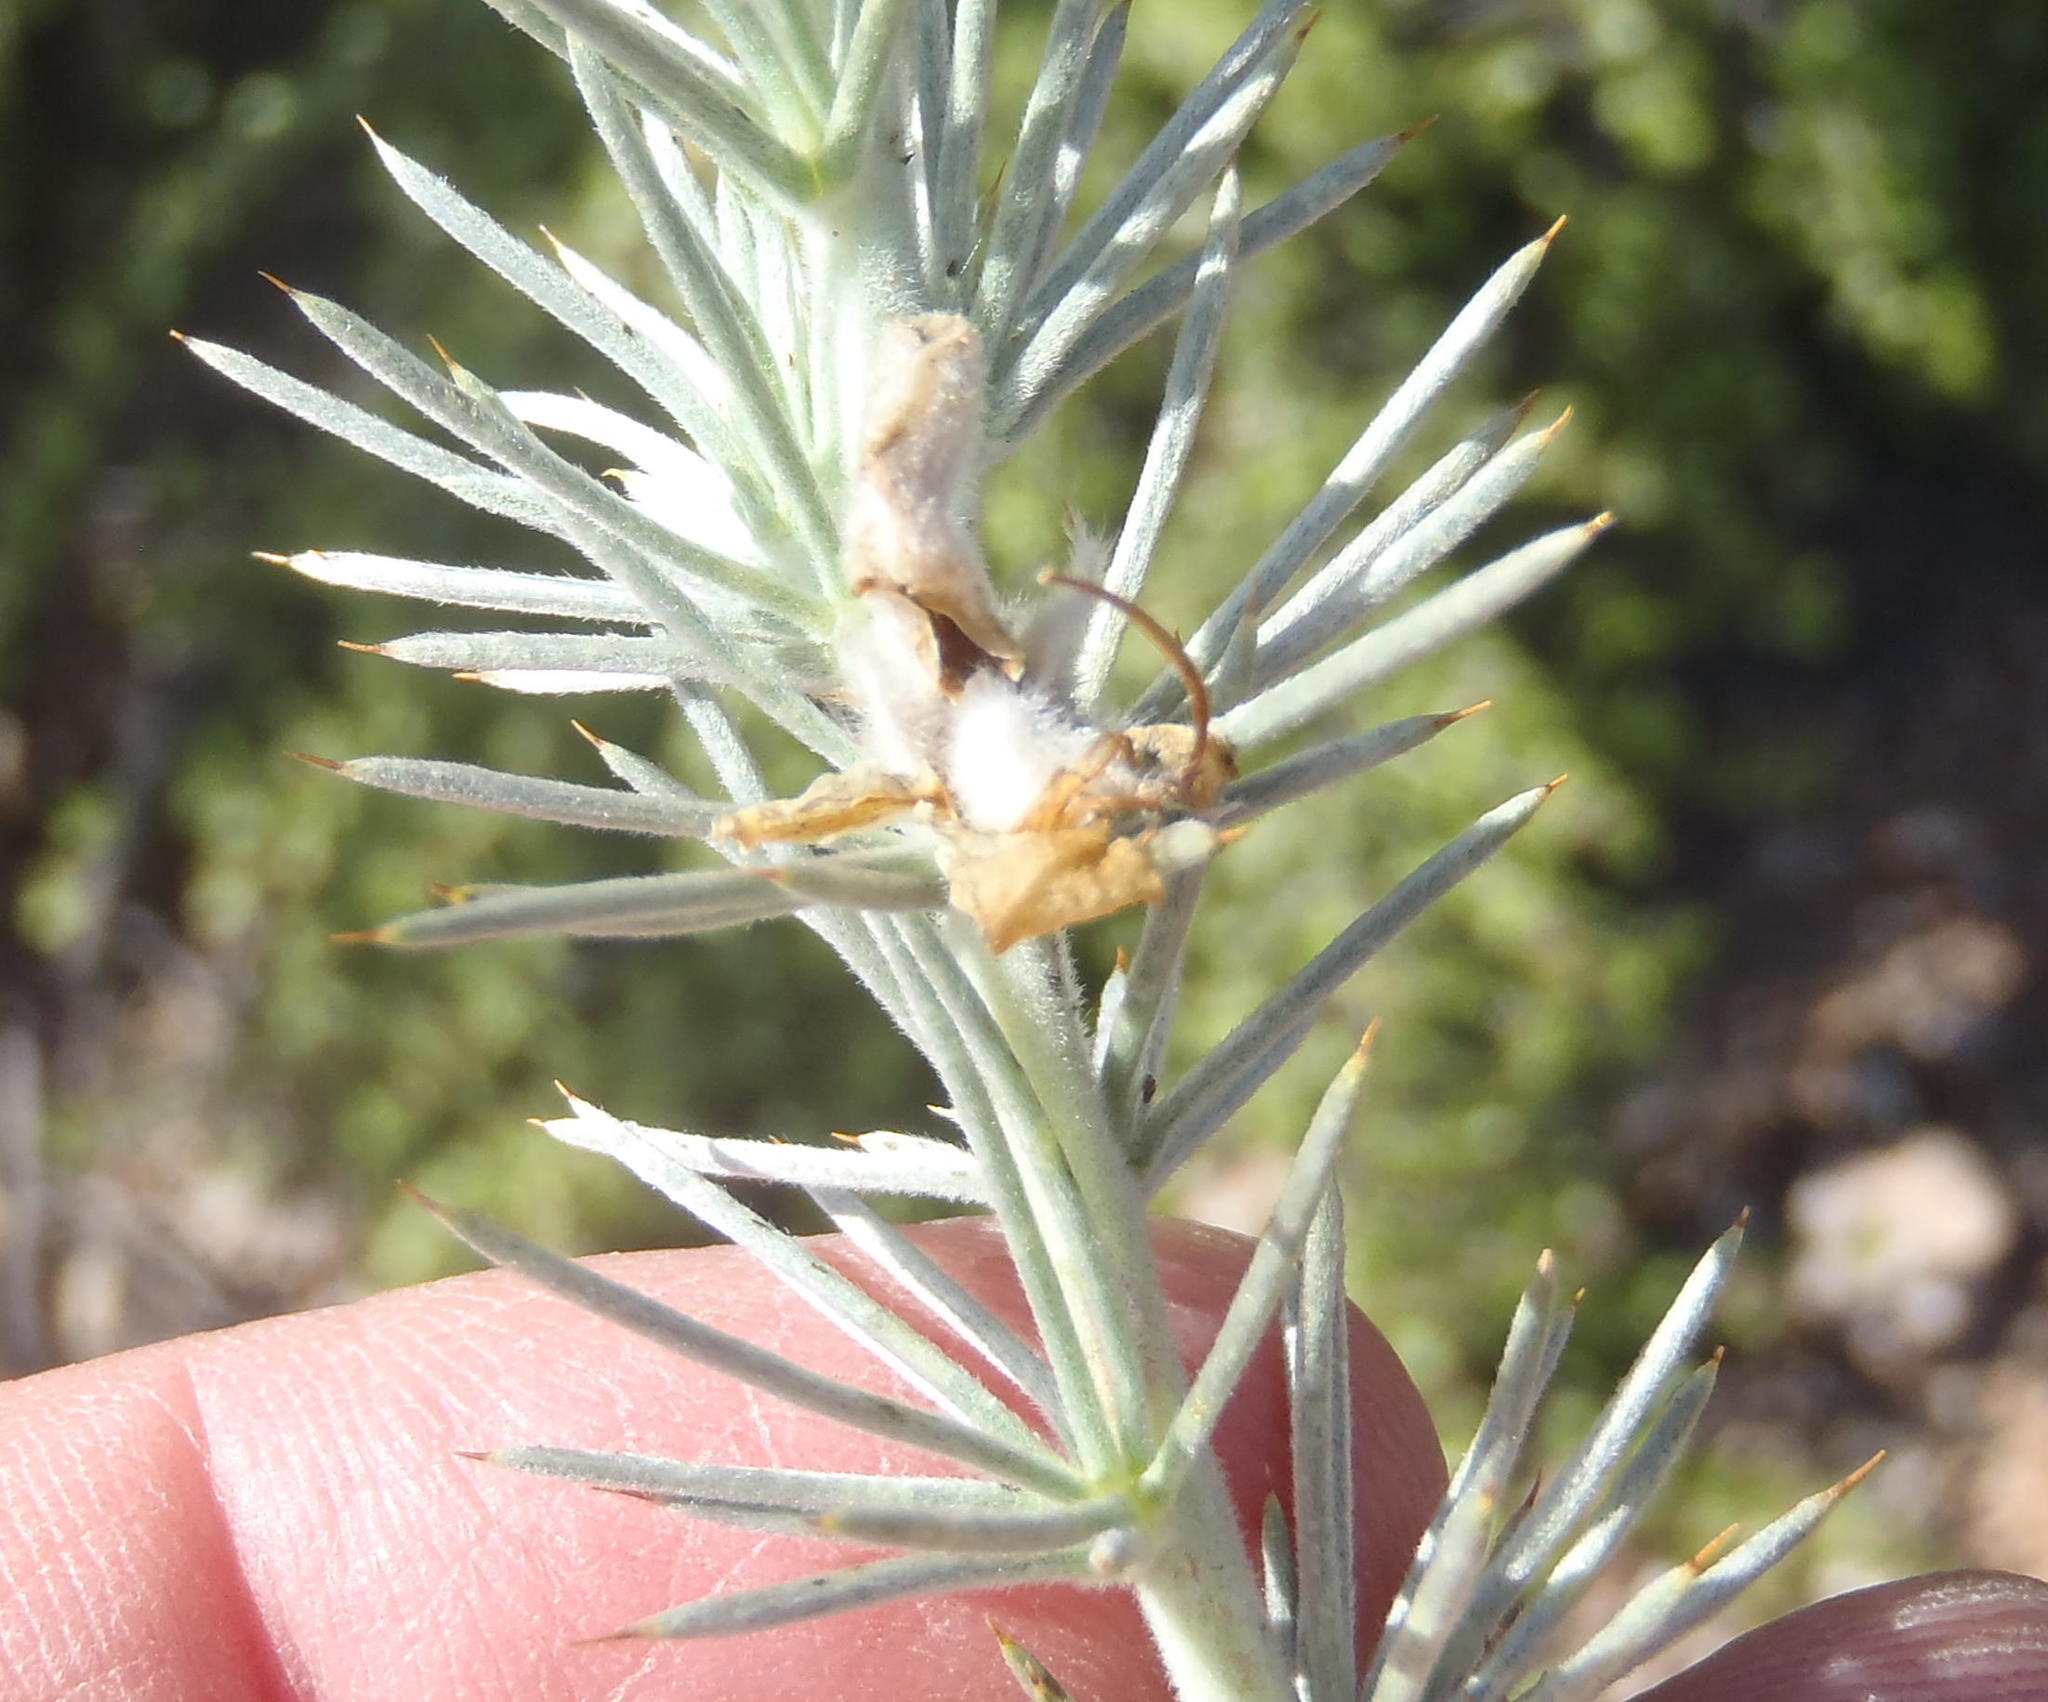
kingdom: Plantae
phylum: Tracheophyta
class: Magnoliopsida
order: Fabales
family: Fabaceae
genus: Aspalathus
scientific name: Aspalathus hystrix
